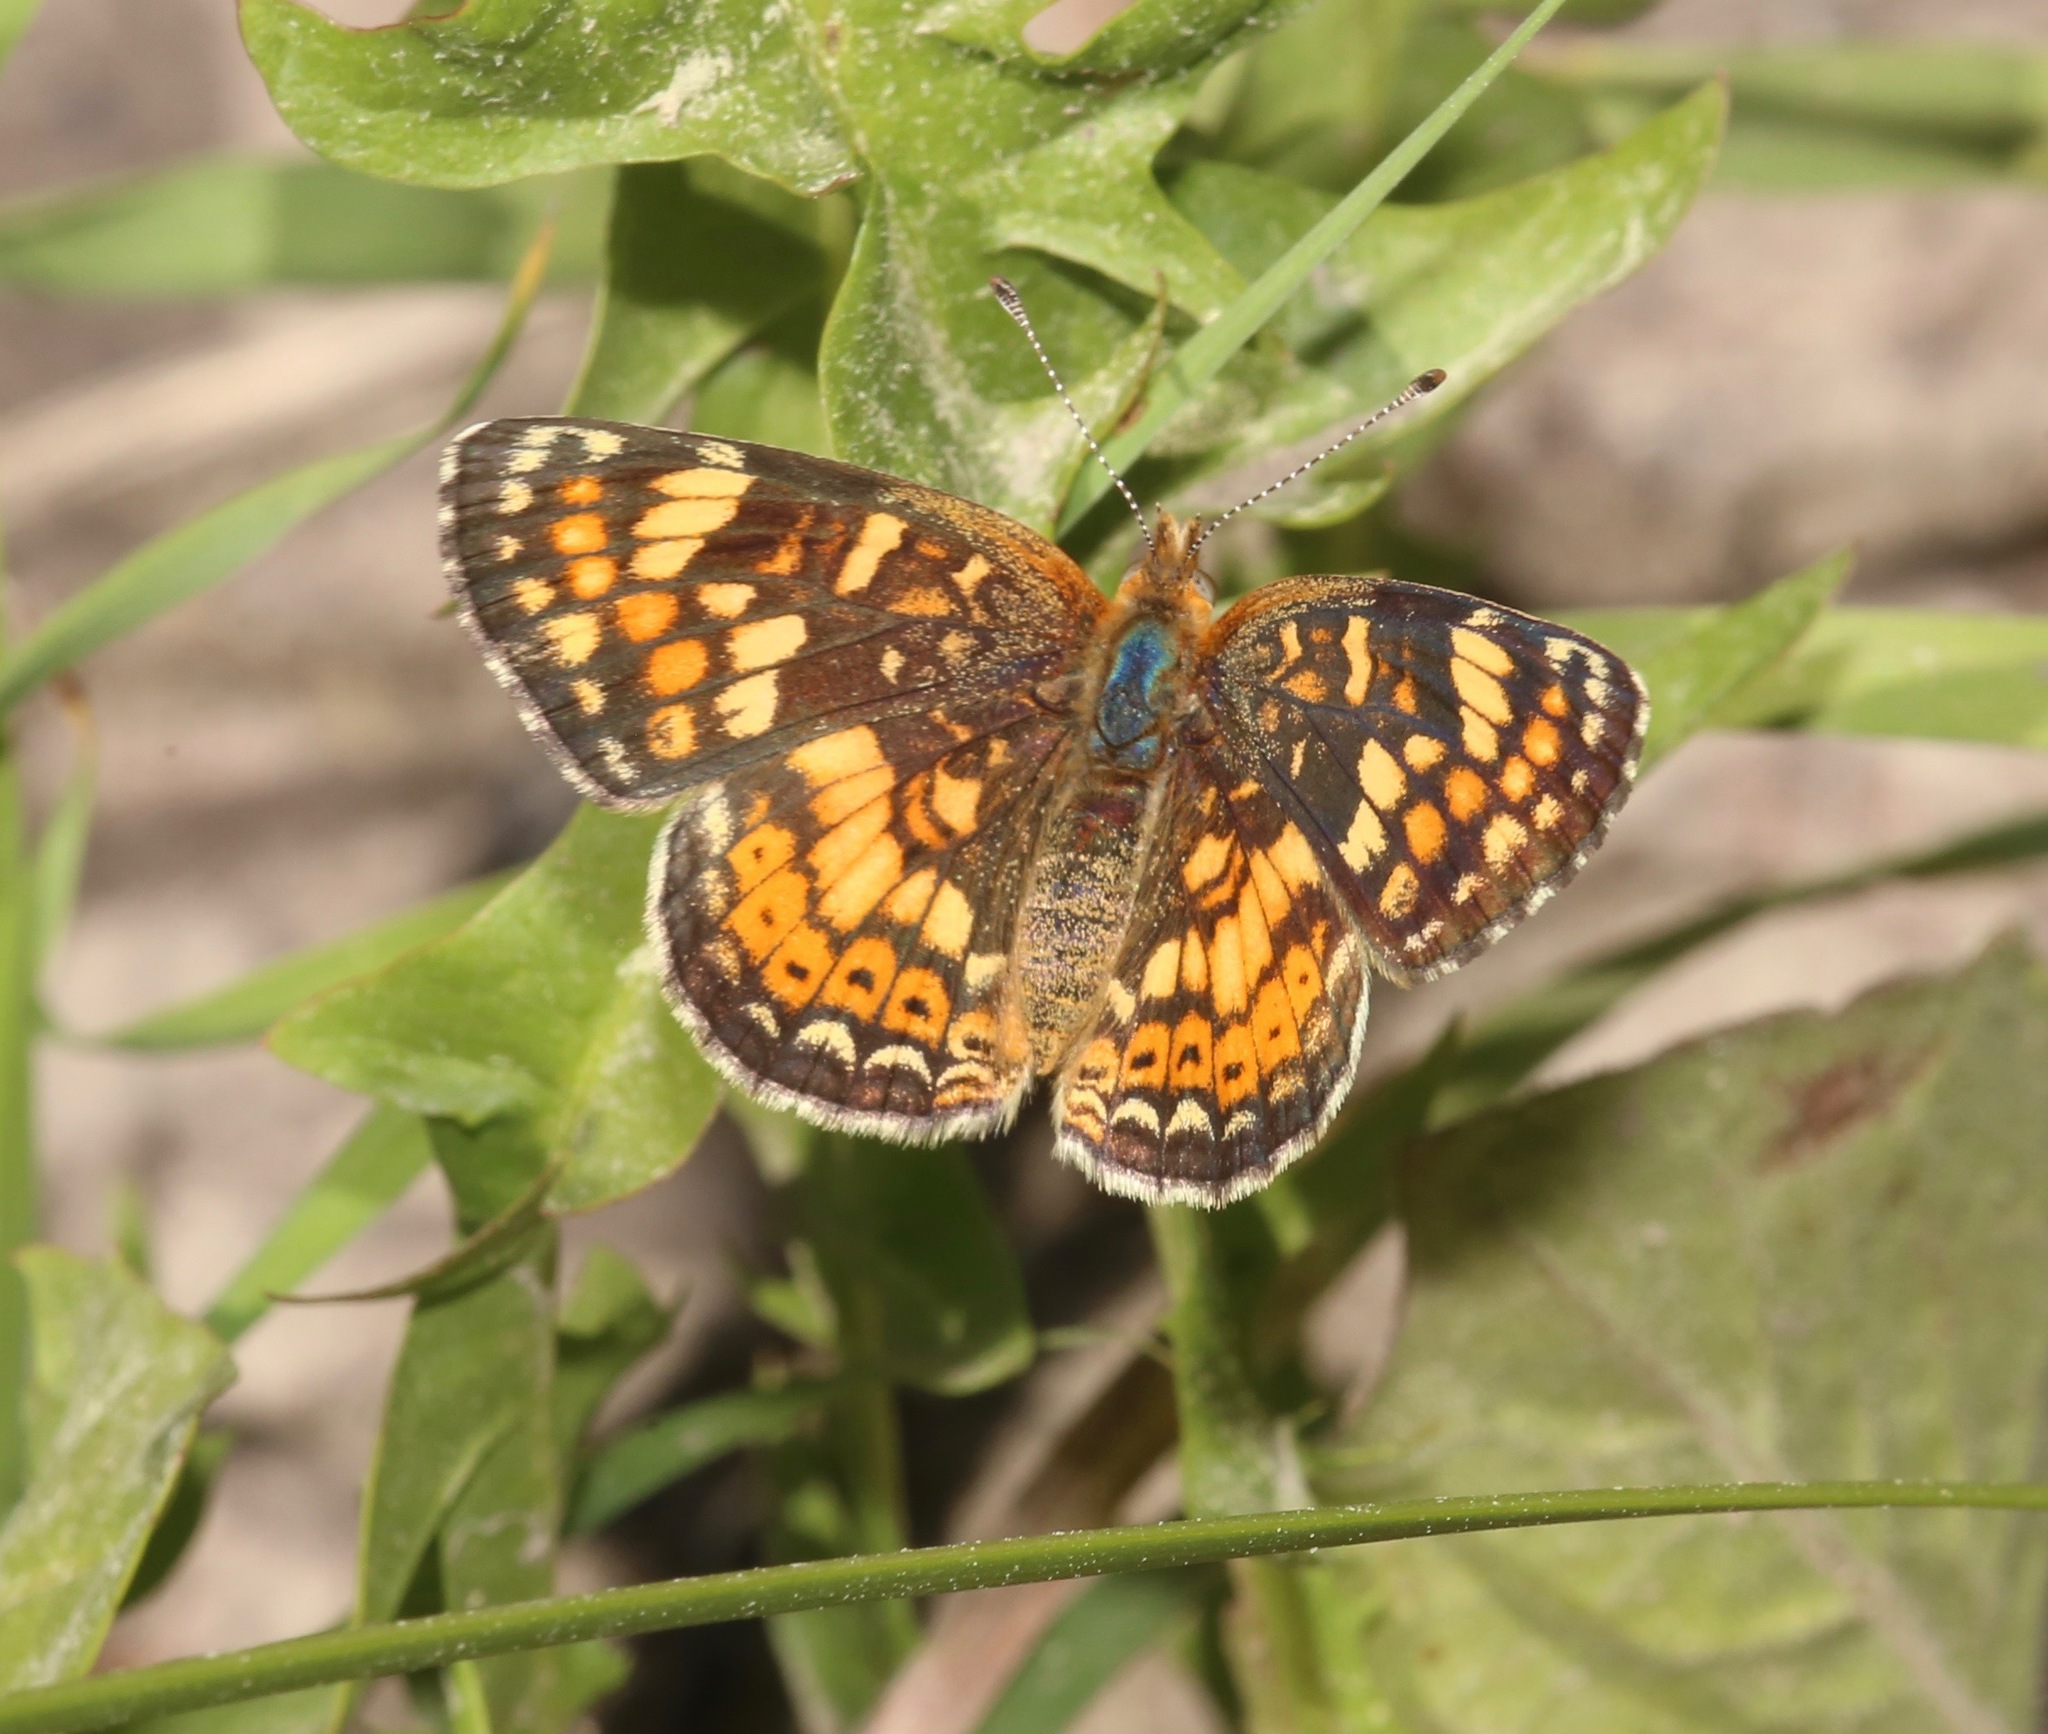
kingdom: Animalia
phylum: Arthropoda
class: Insecta
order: Lepidoptera
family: Nymphalidae
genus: Phyciodes
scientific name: Phyciodes tharos
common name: Pearl crescent
